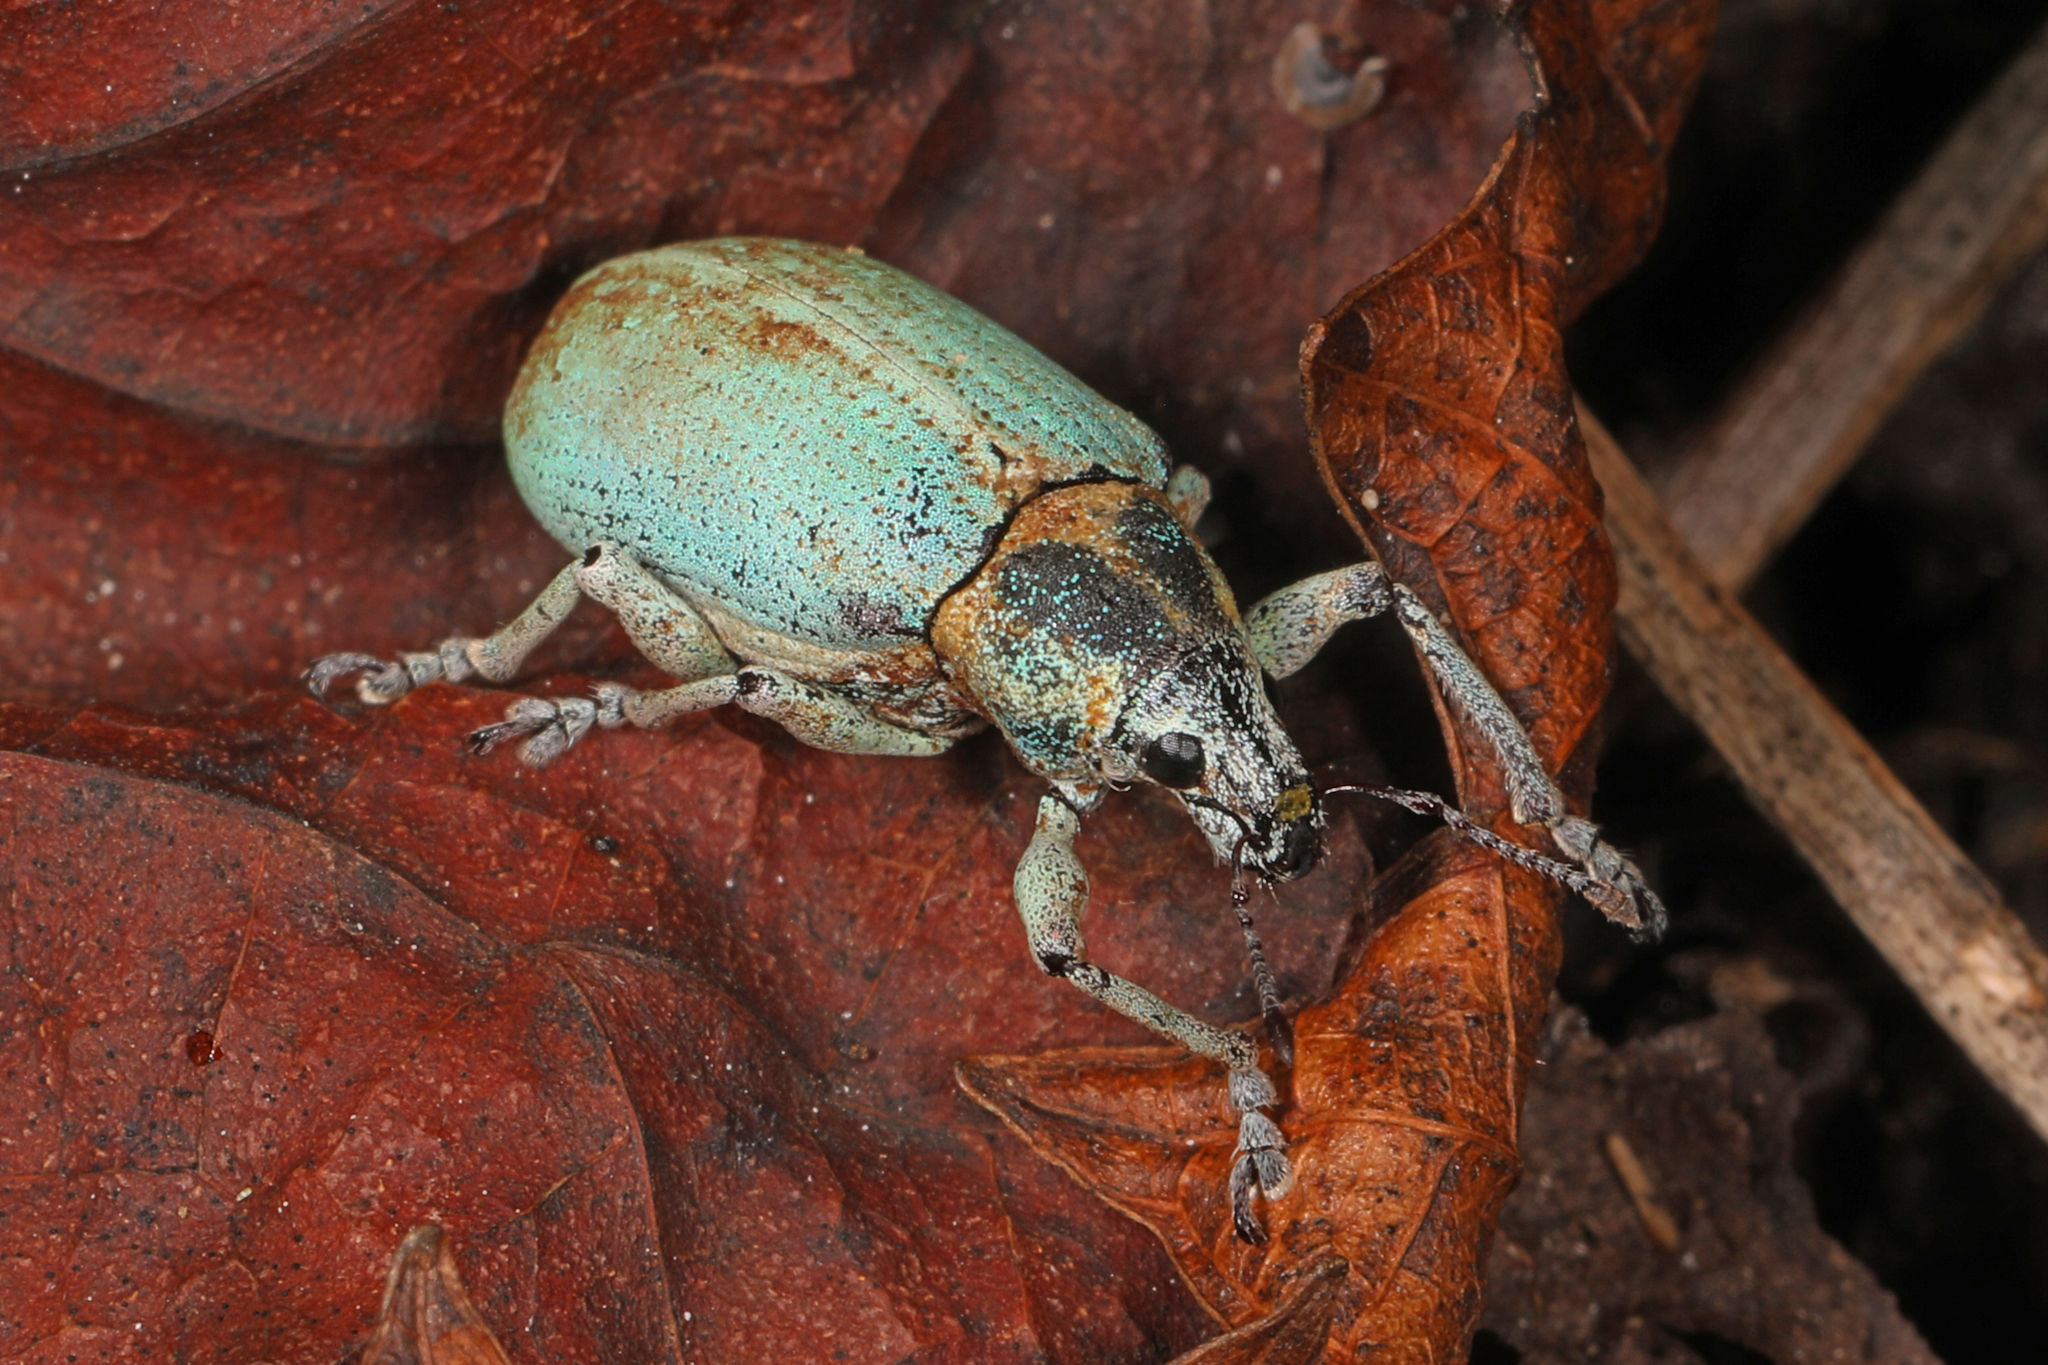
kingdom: Animalia
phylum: Arthropoda
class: Insecta
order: Coleoptera
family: Curculionidae
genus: Pachnaeus
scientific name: Pachnaeus litus
